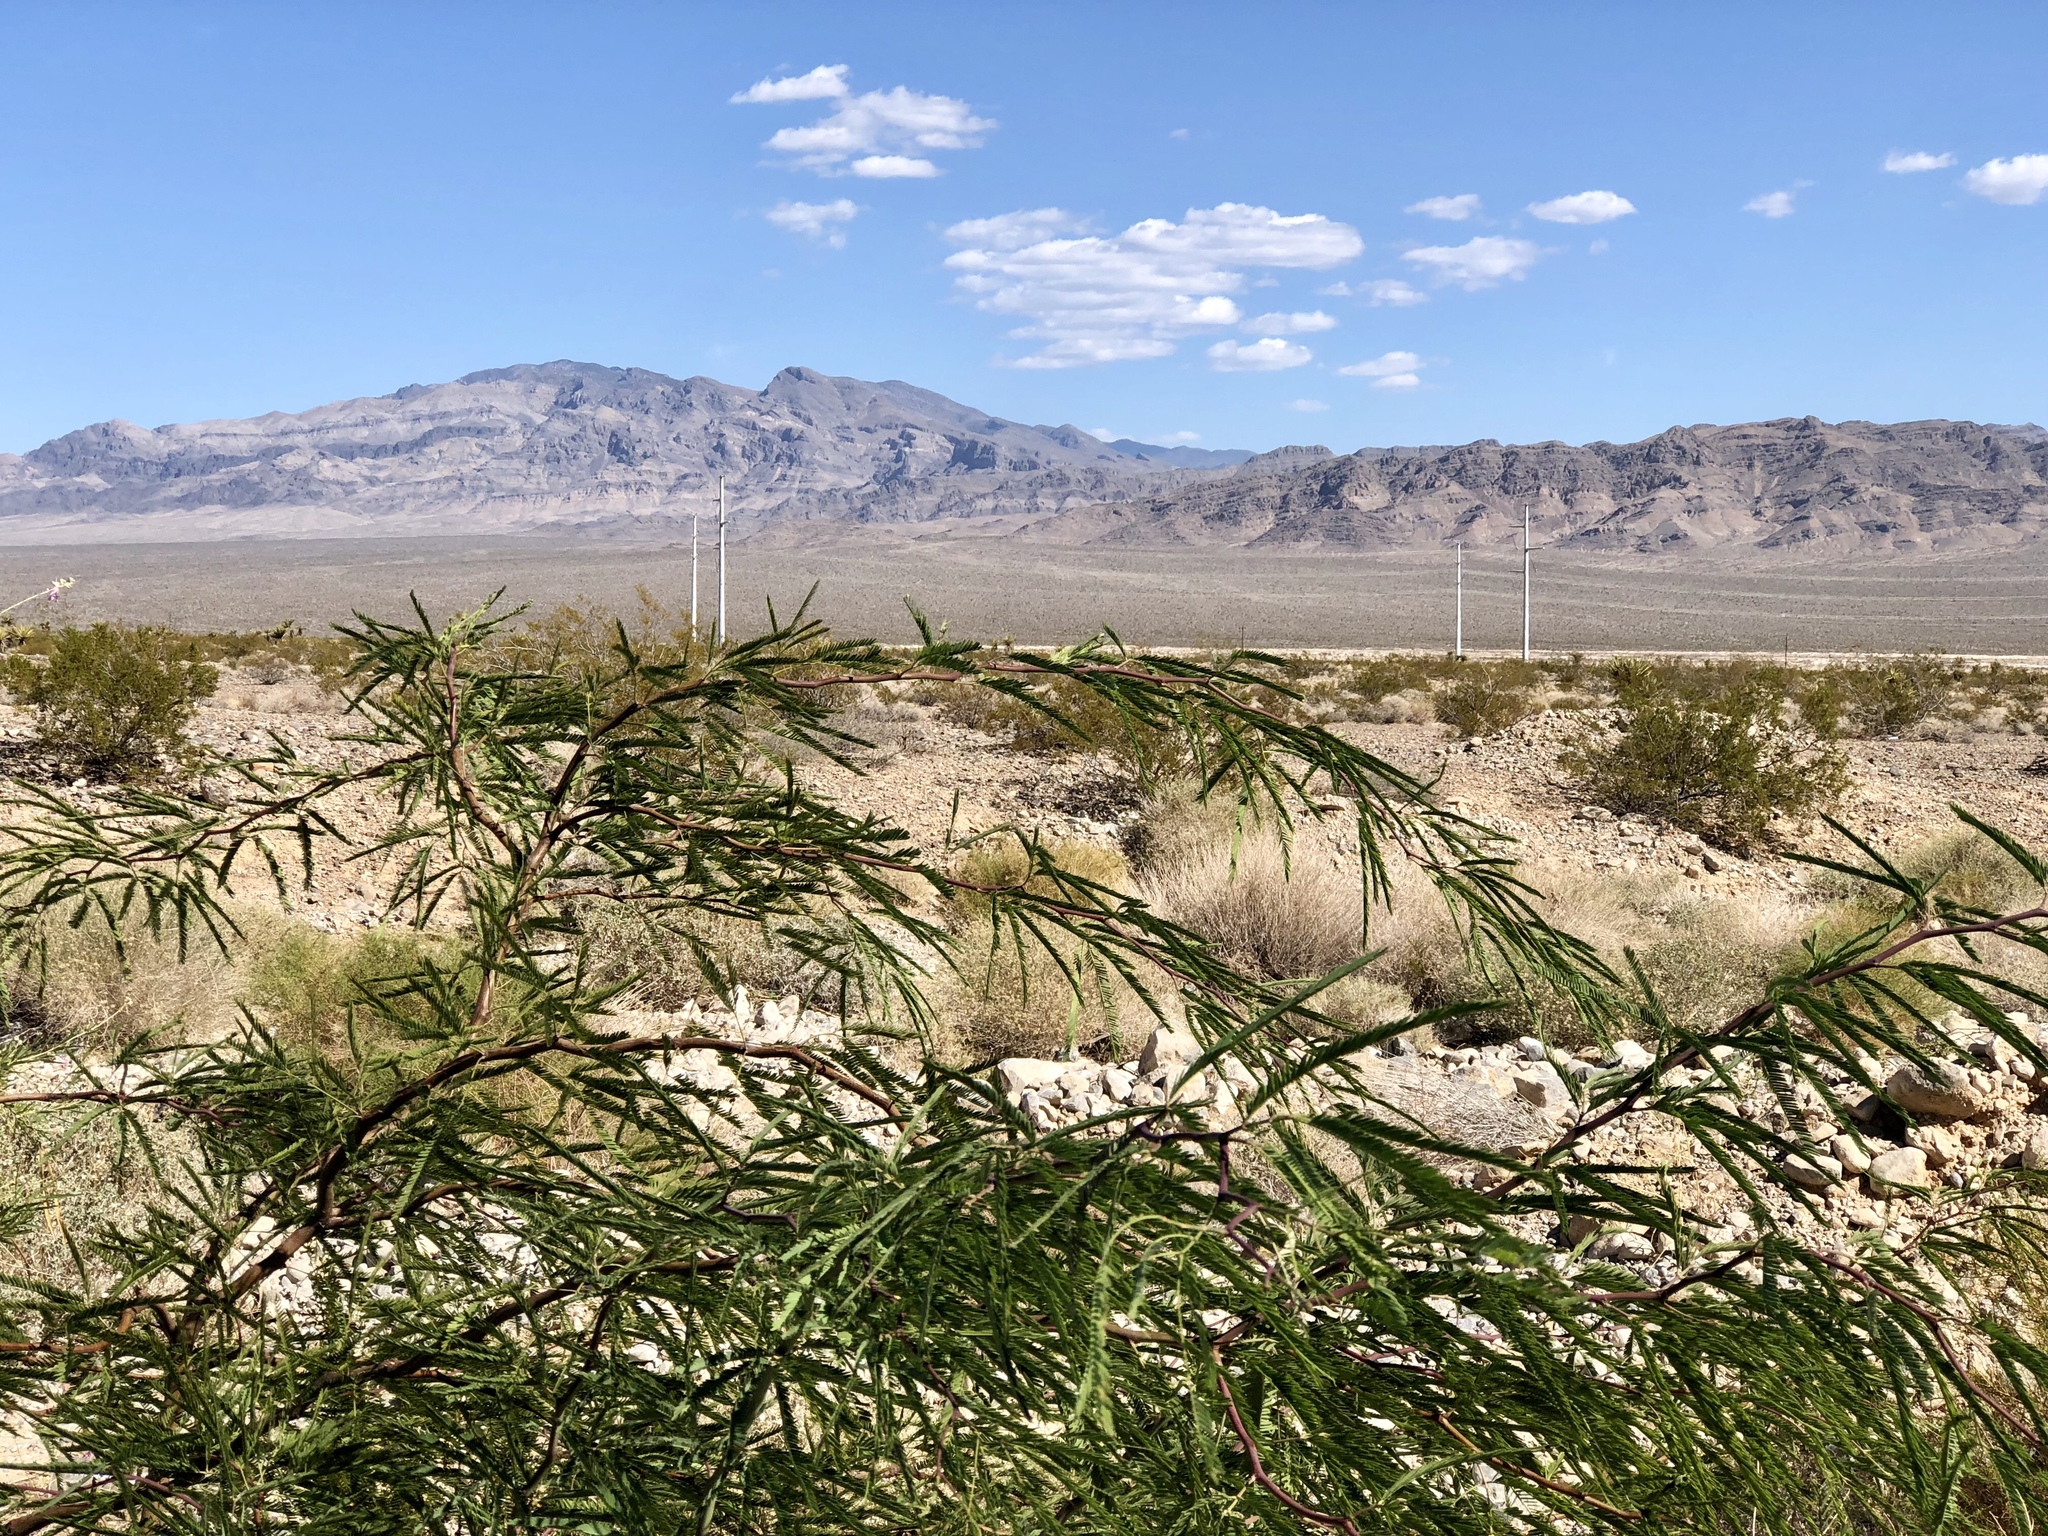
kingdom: Plantae
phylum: Tracheophyta
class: Magnoliopsida
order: Fabales
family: Fabaceae
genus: Prosopis
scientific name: Prosopis alba
